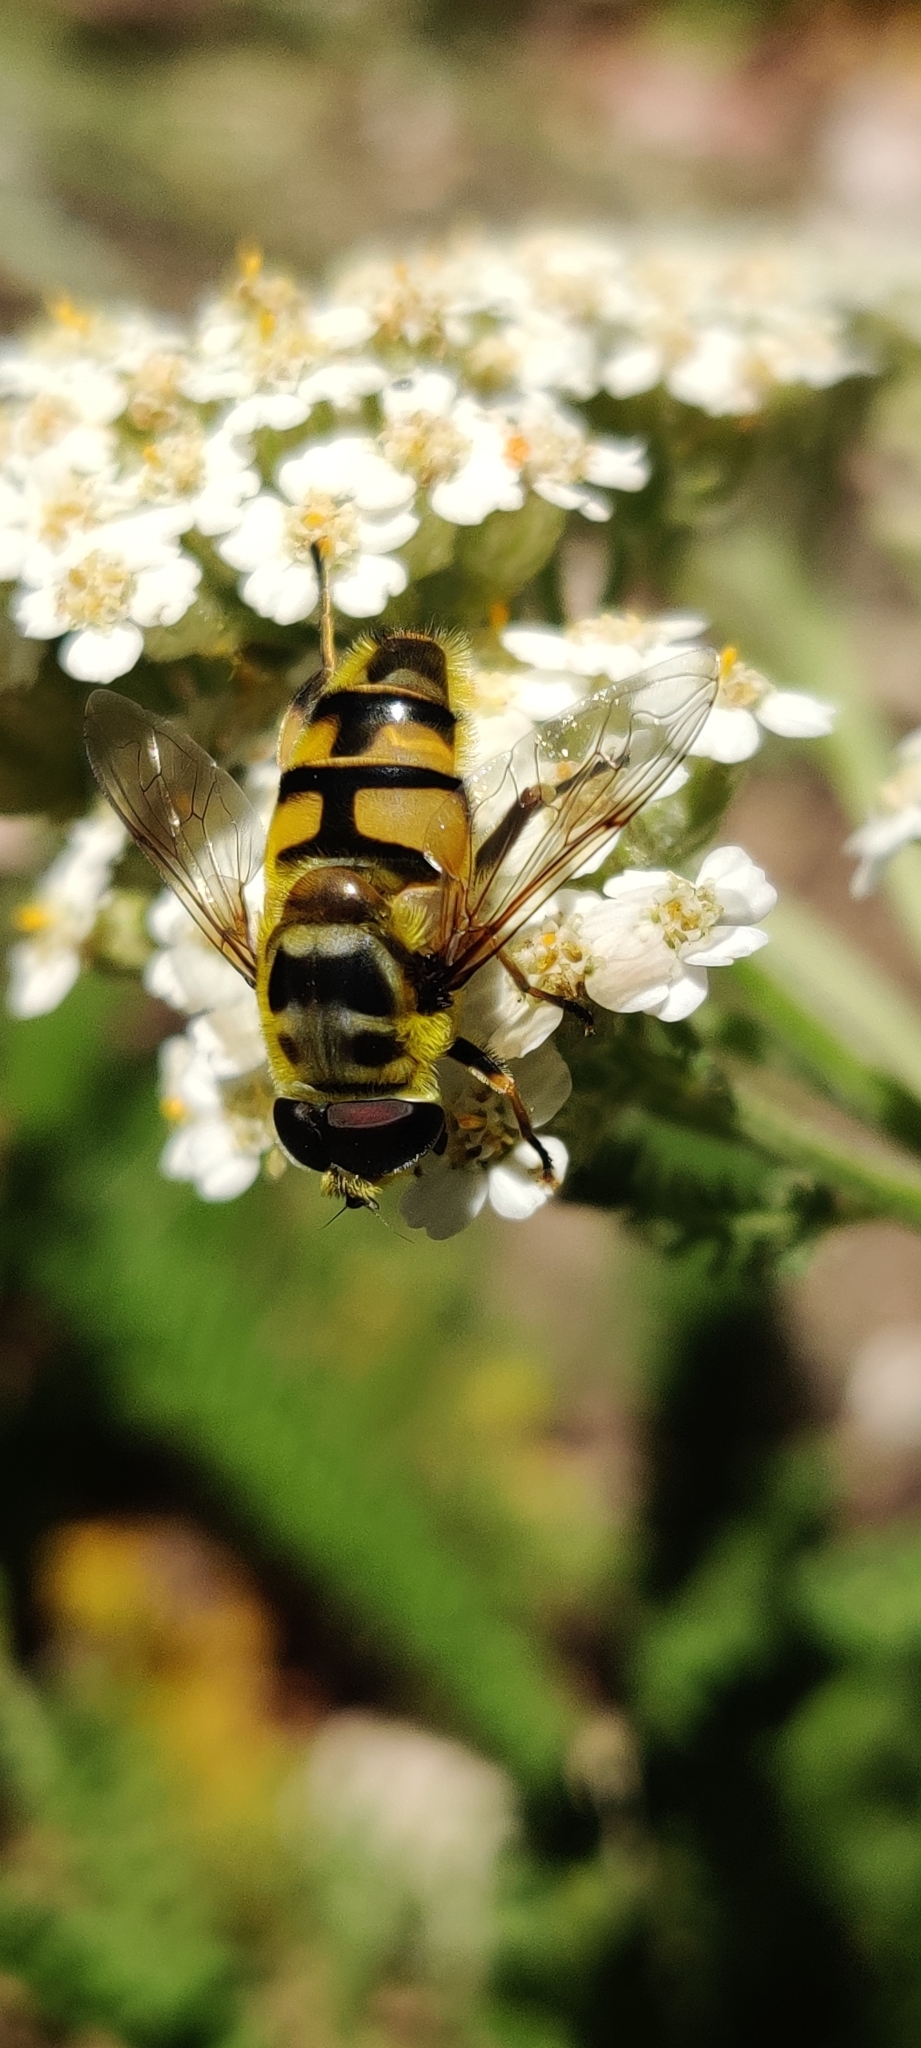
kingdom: Animalia
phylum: Arthropoda
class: Insecta
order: Diptera
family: Syrphidae
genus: Myathropa
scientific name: Myathropa florea
